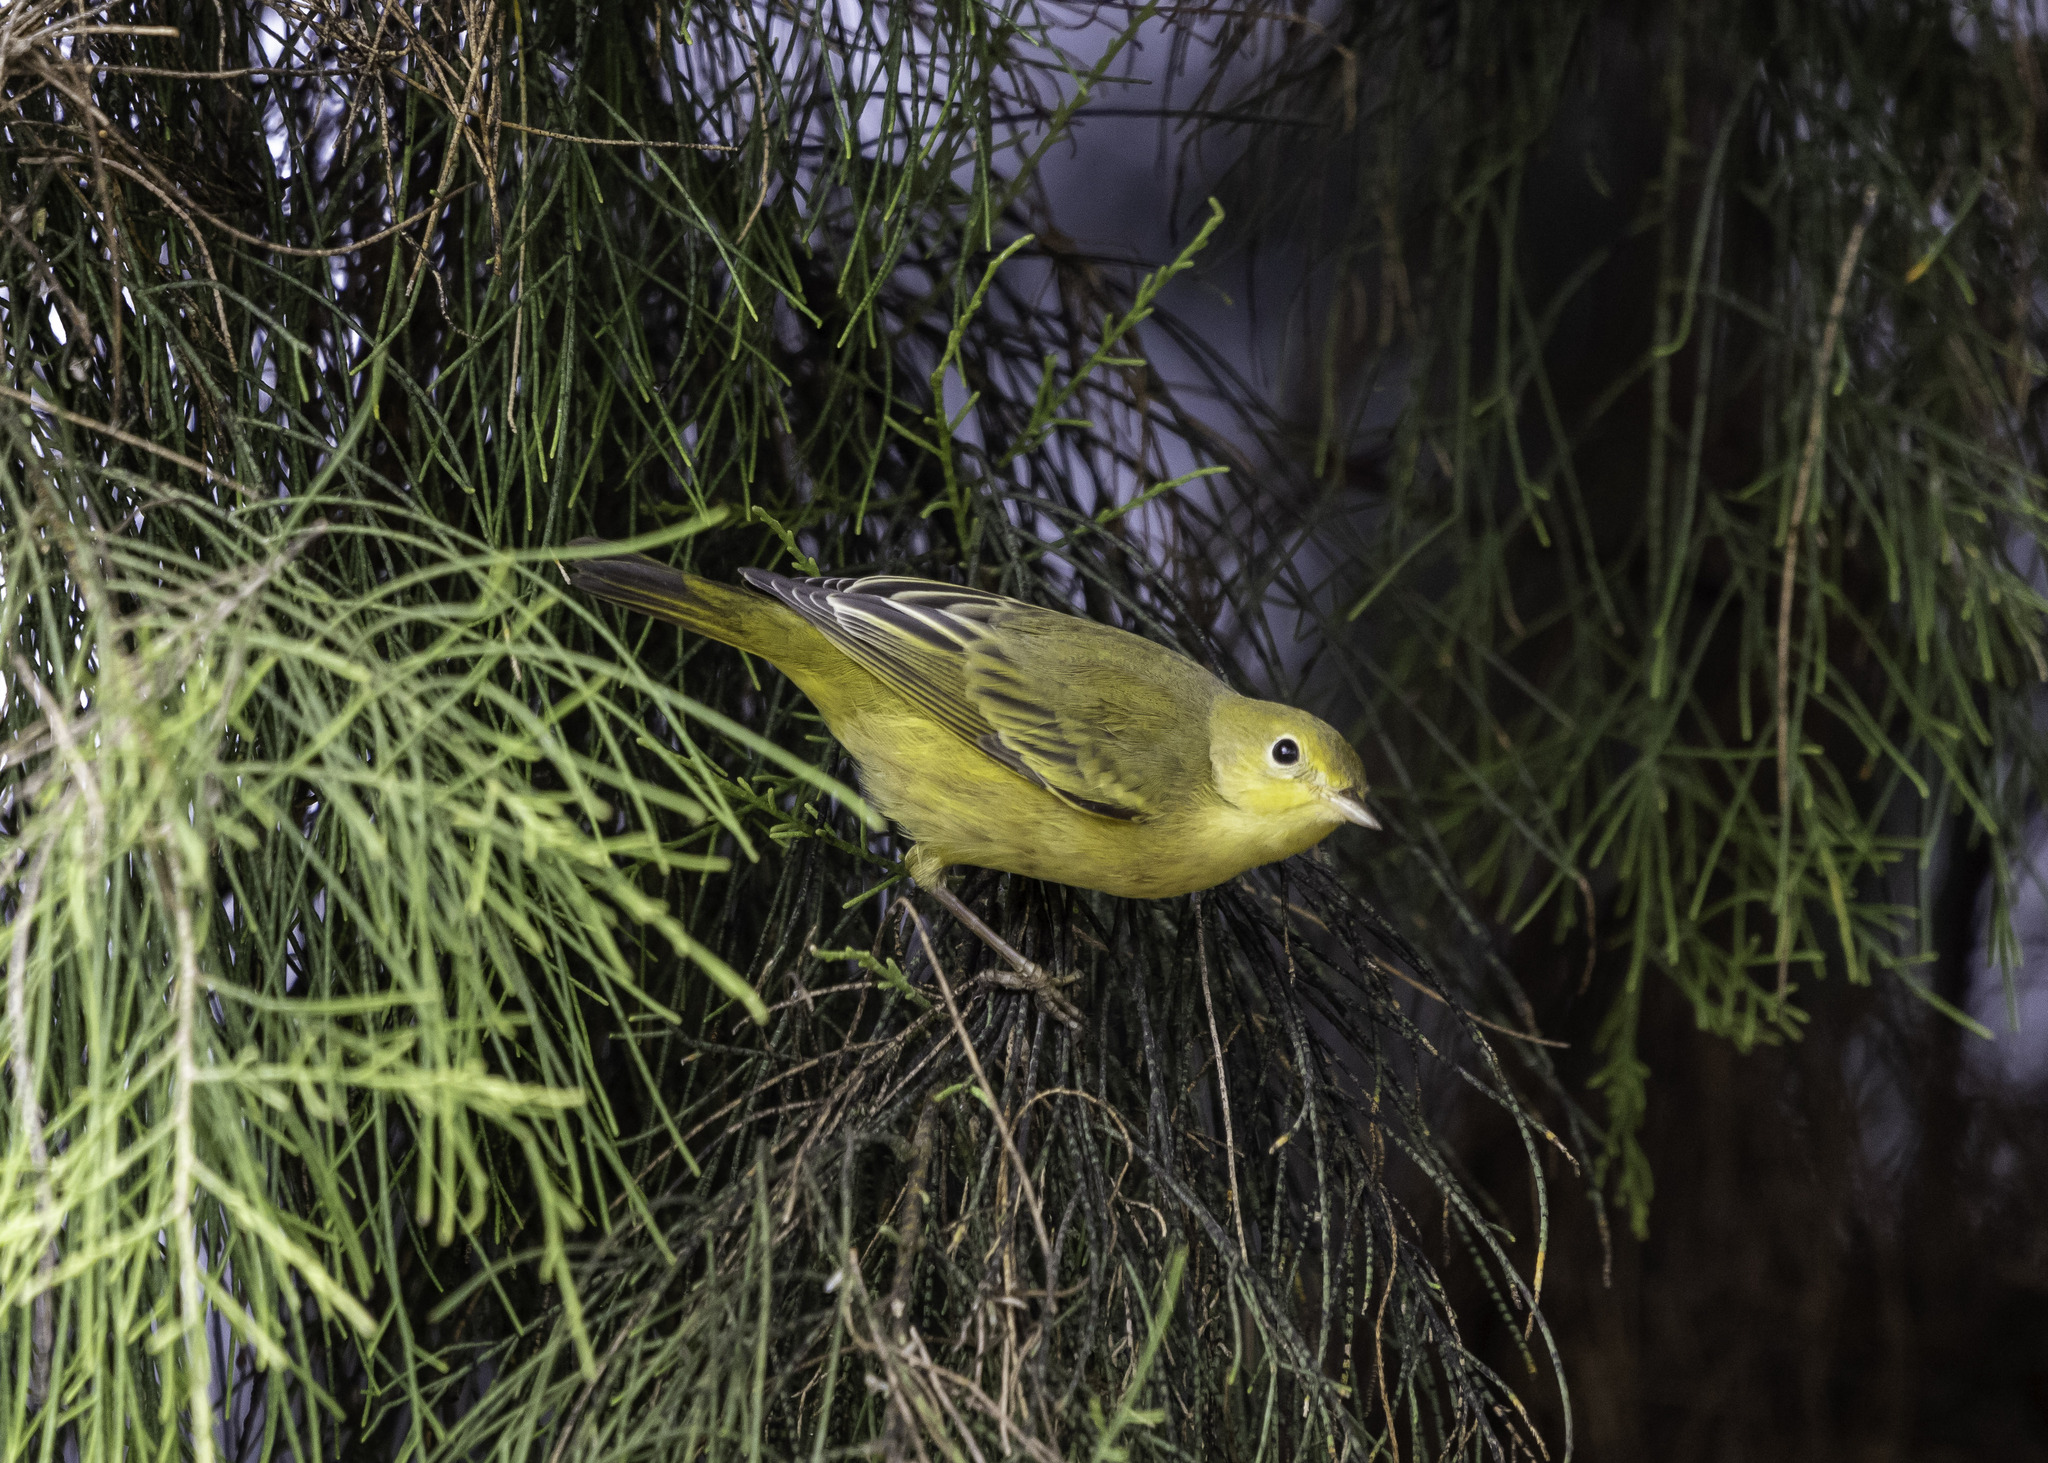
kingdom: Animalia
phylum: Chordata
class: Aves
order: Passeriformes
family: Parulidae
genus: Setophaga
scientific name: Setophaga petechia
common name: Yellow warbler
